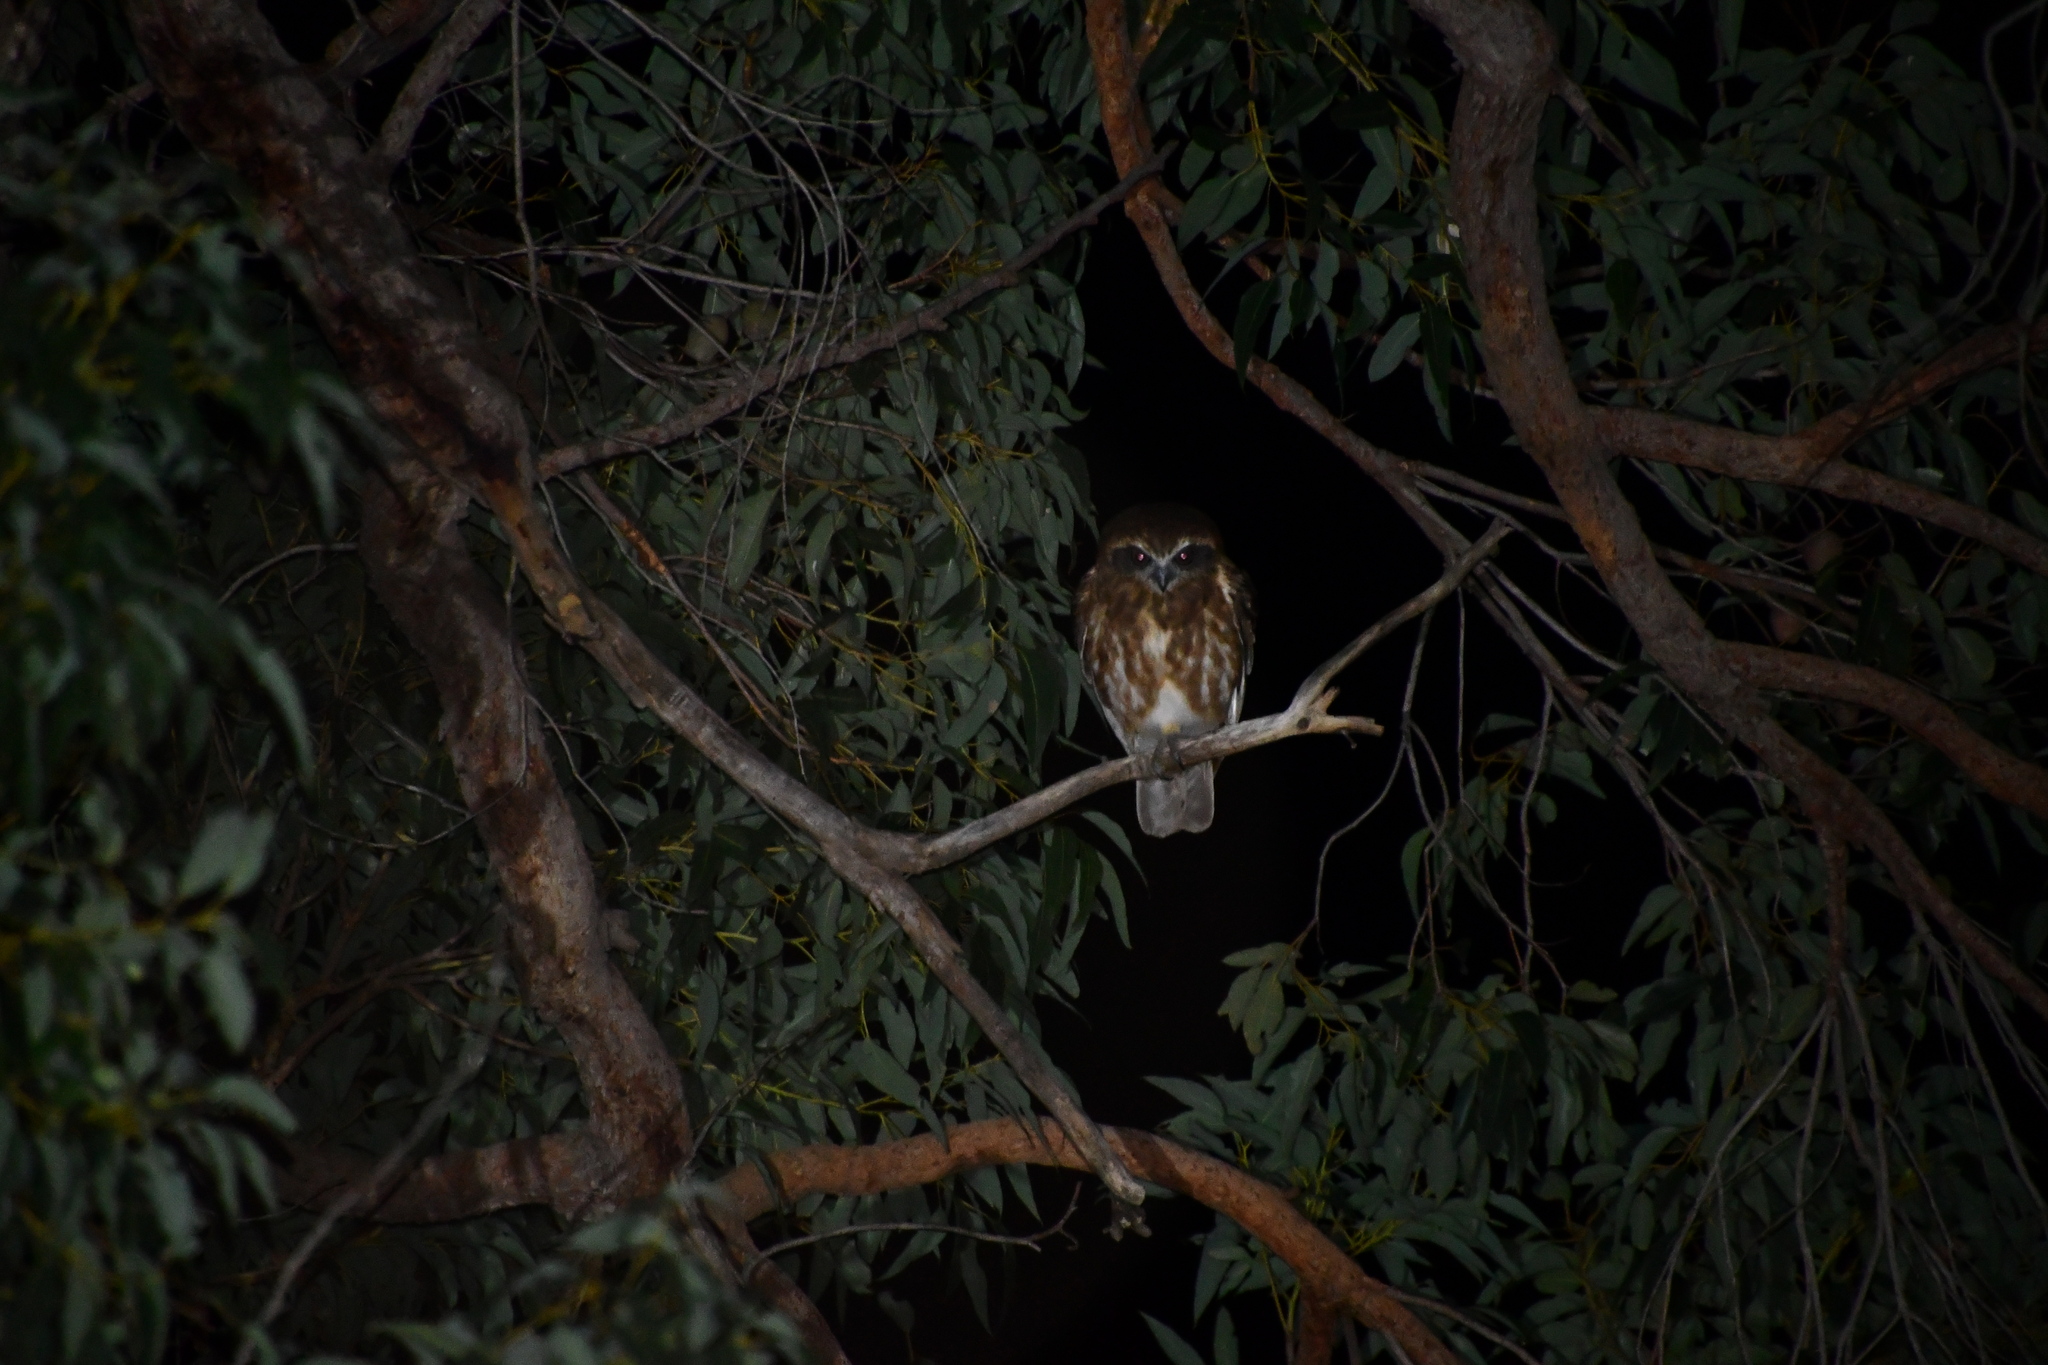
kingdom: Animalia
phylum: Chordata
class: Aves
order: Strigiformes
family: Strigidae
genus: Ninox
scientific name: Ninox boobook
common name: Southern boobook
